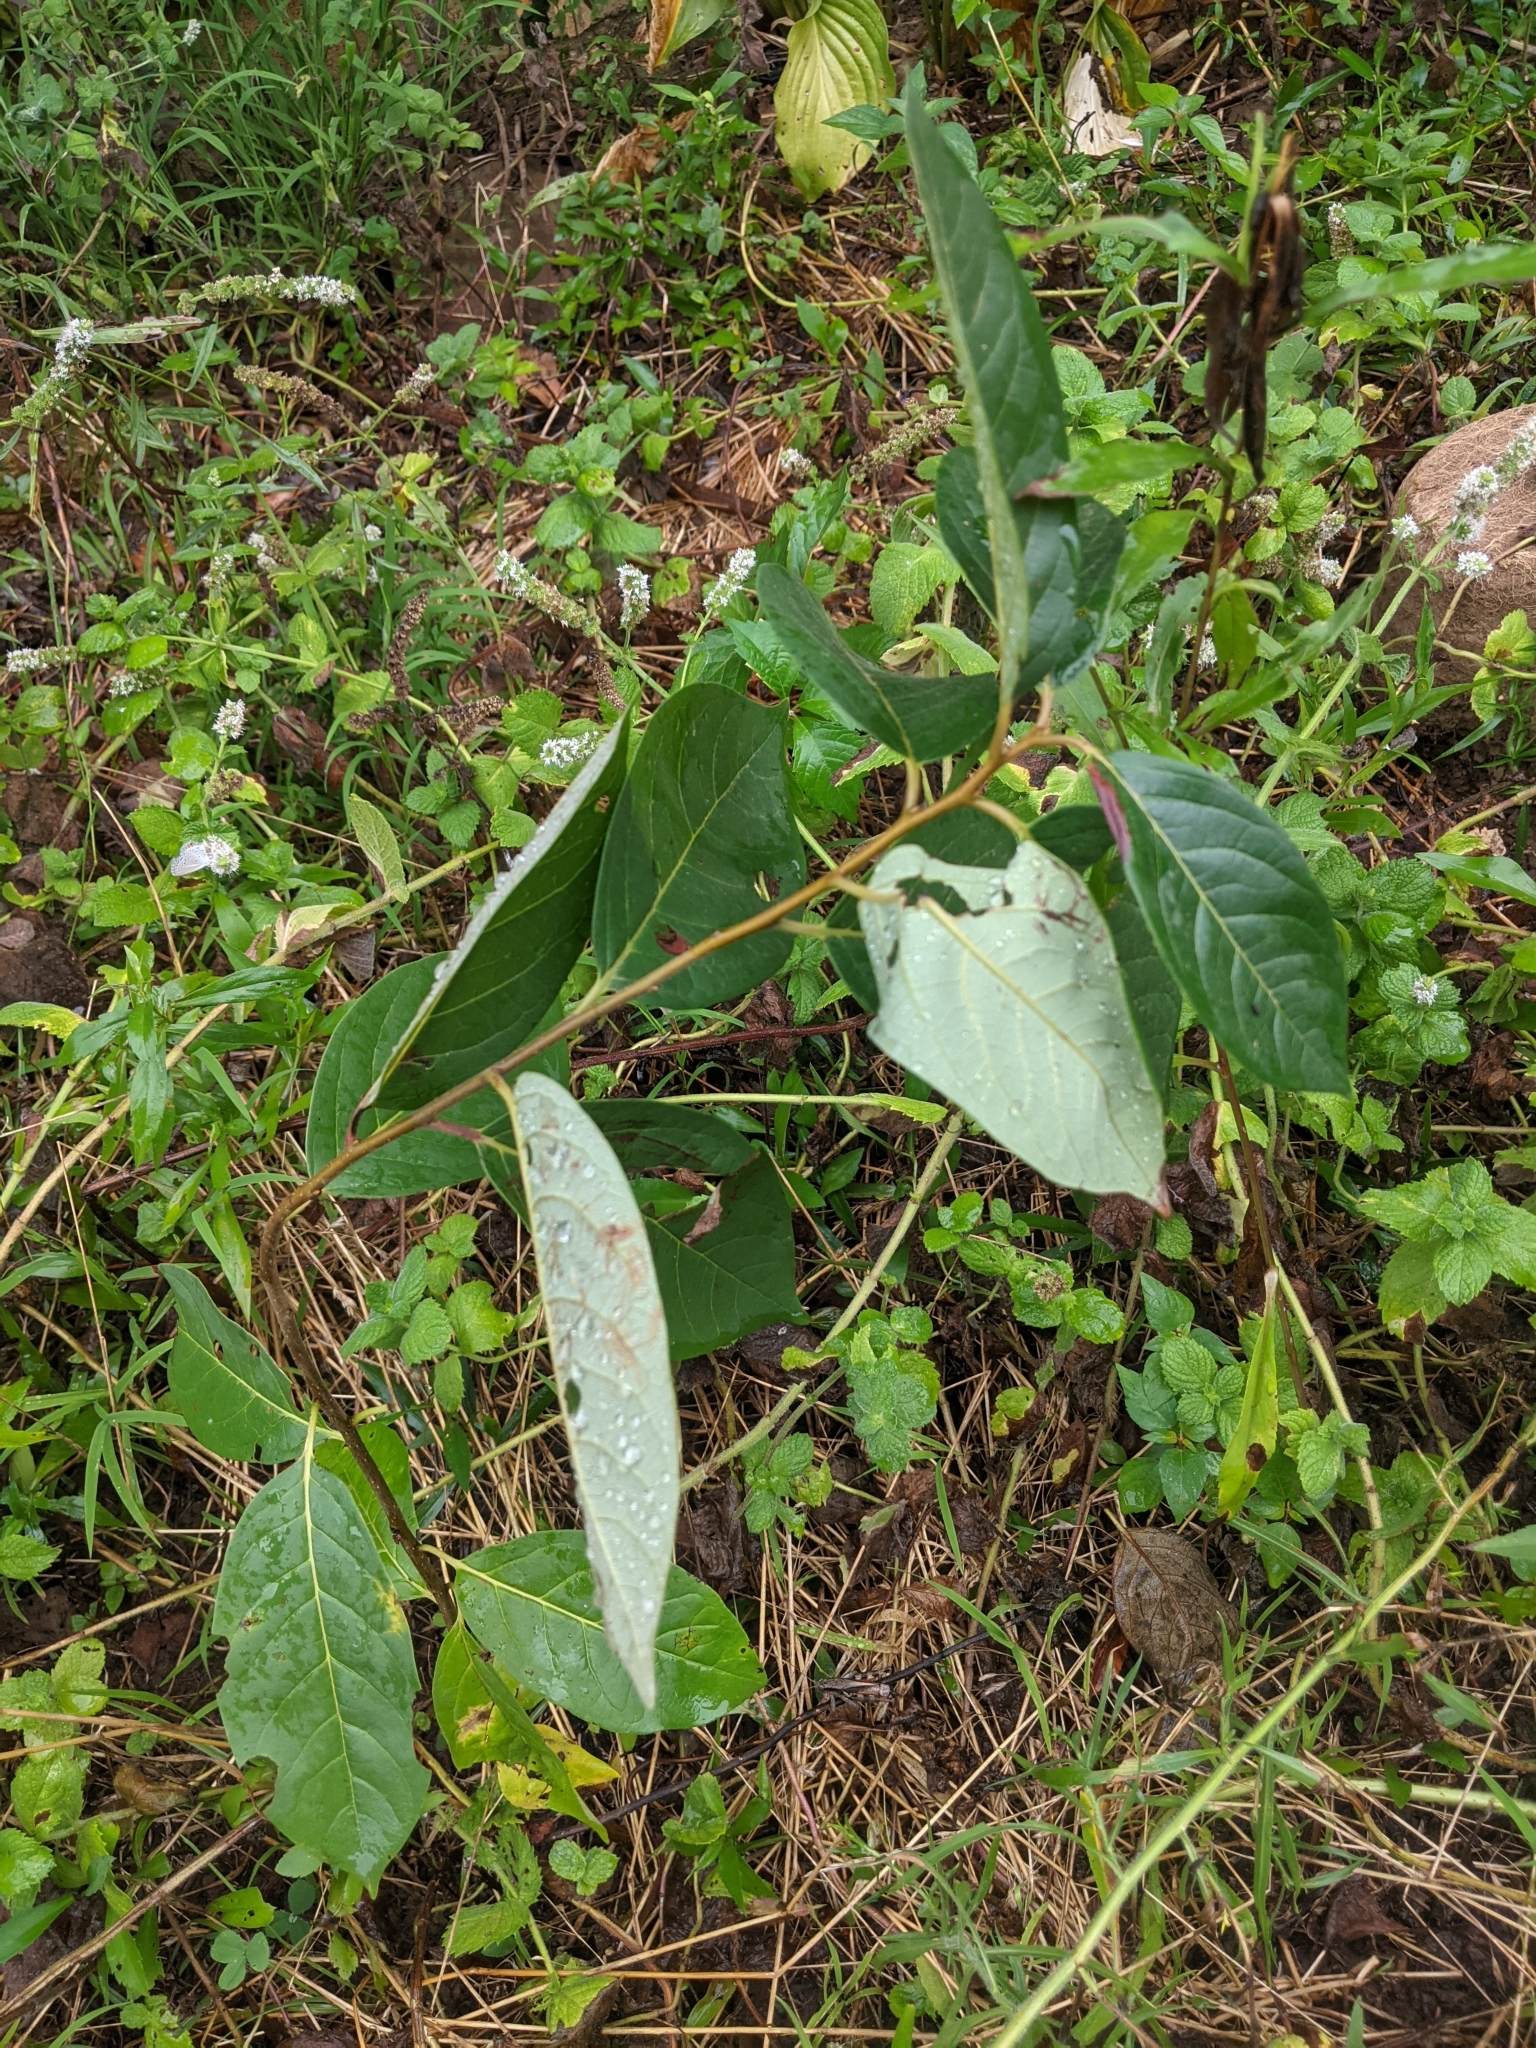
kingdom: Plantae
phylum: Tracheophyta
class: Magnoliopsida
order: Ericales
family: Ebenaceae
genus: Diospyros
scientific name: Diospyros virginiana
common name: Persimmon
